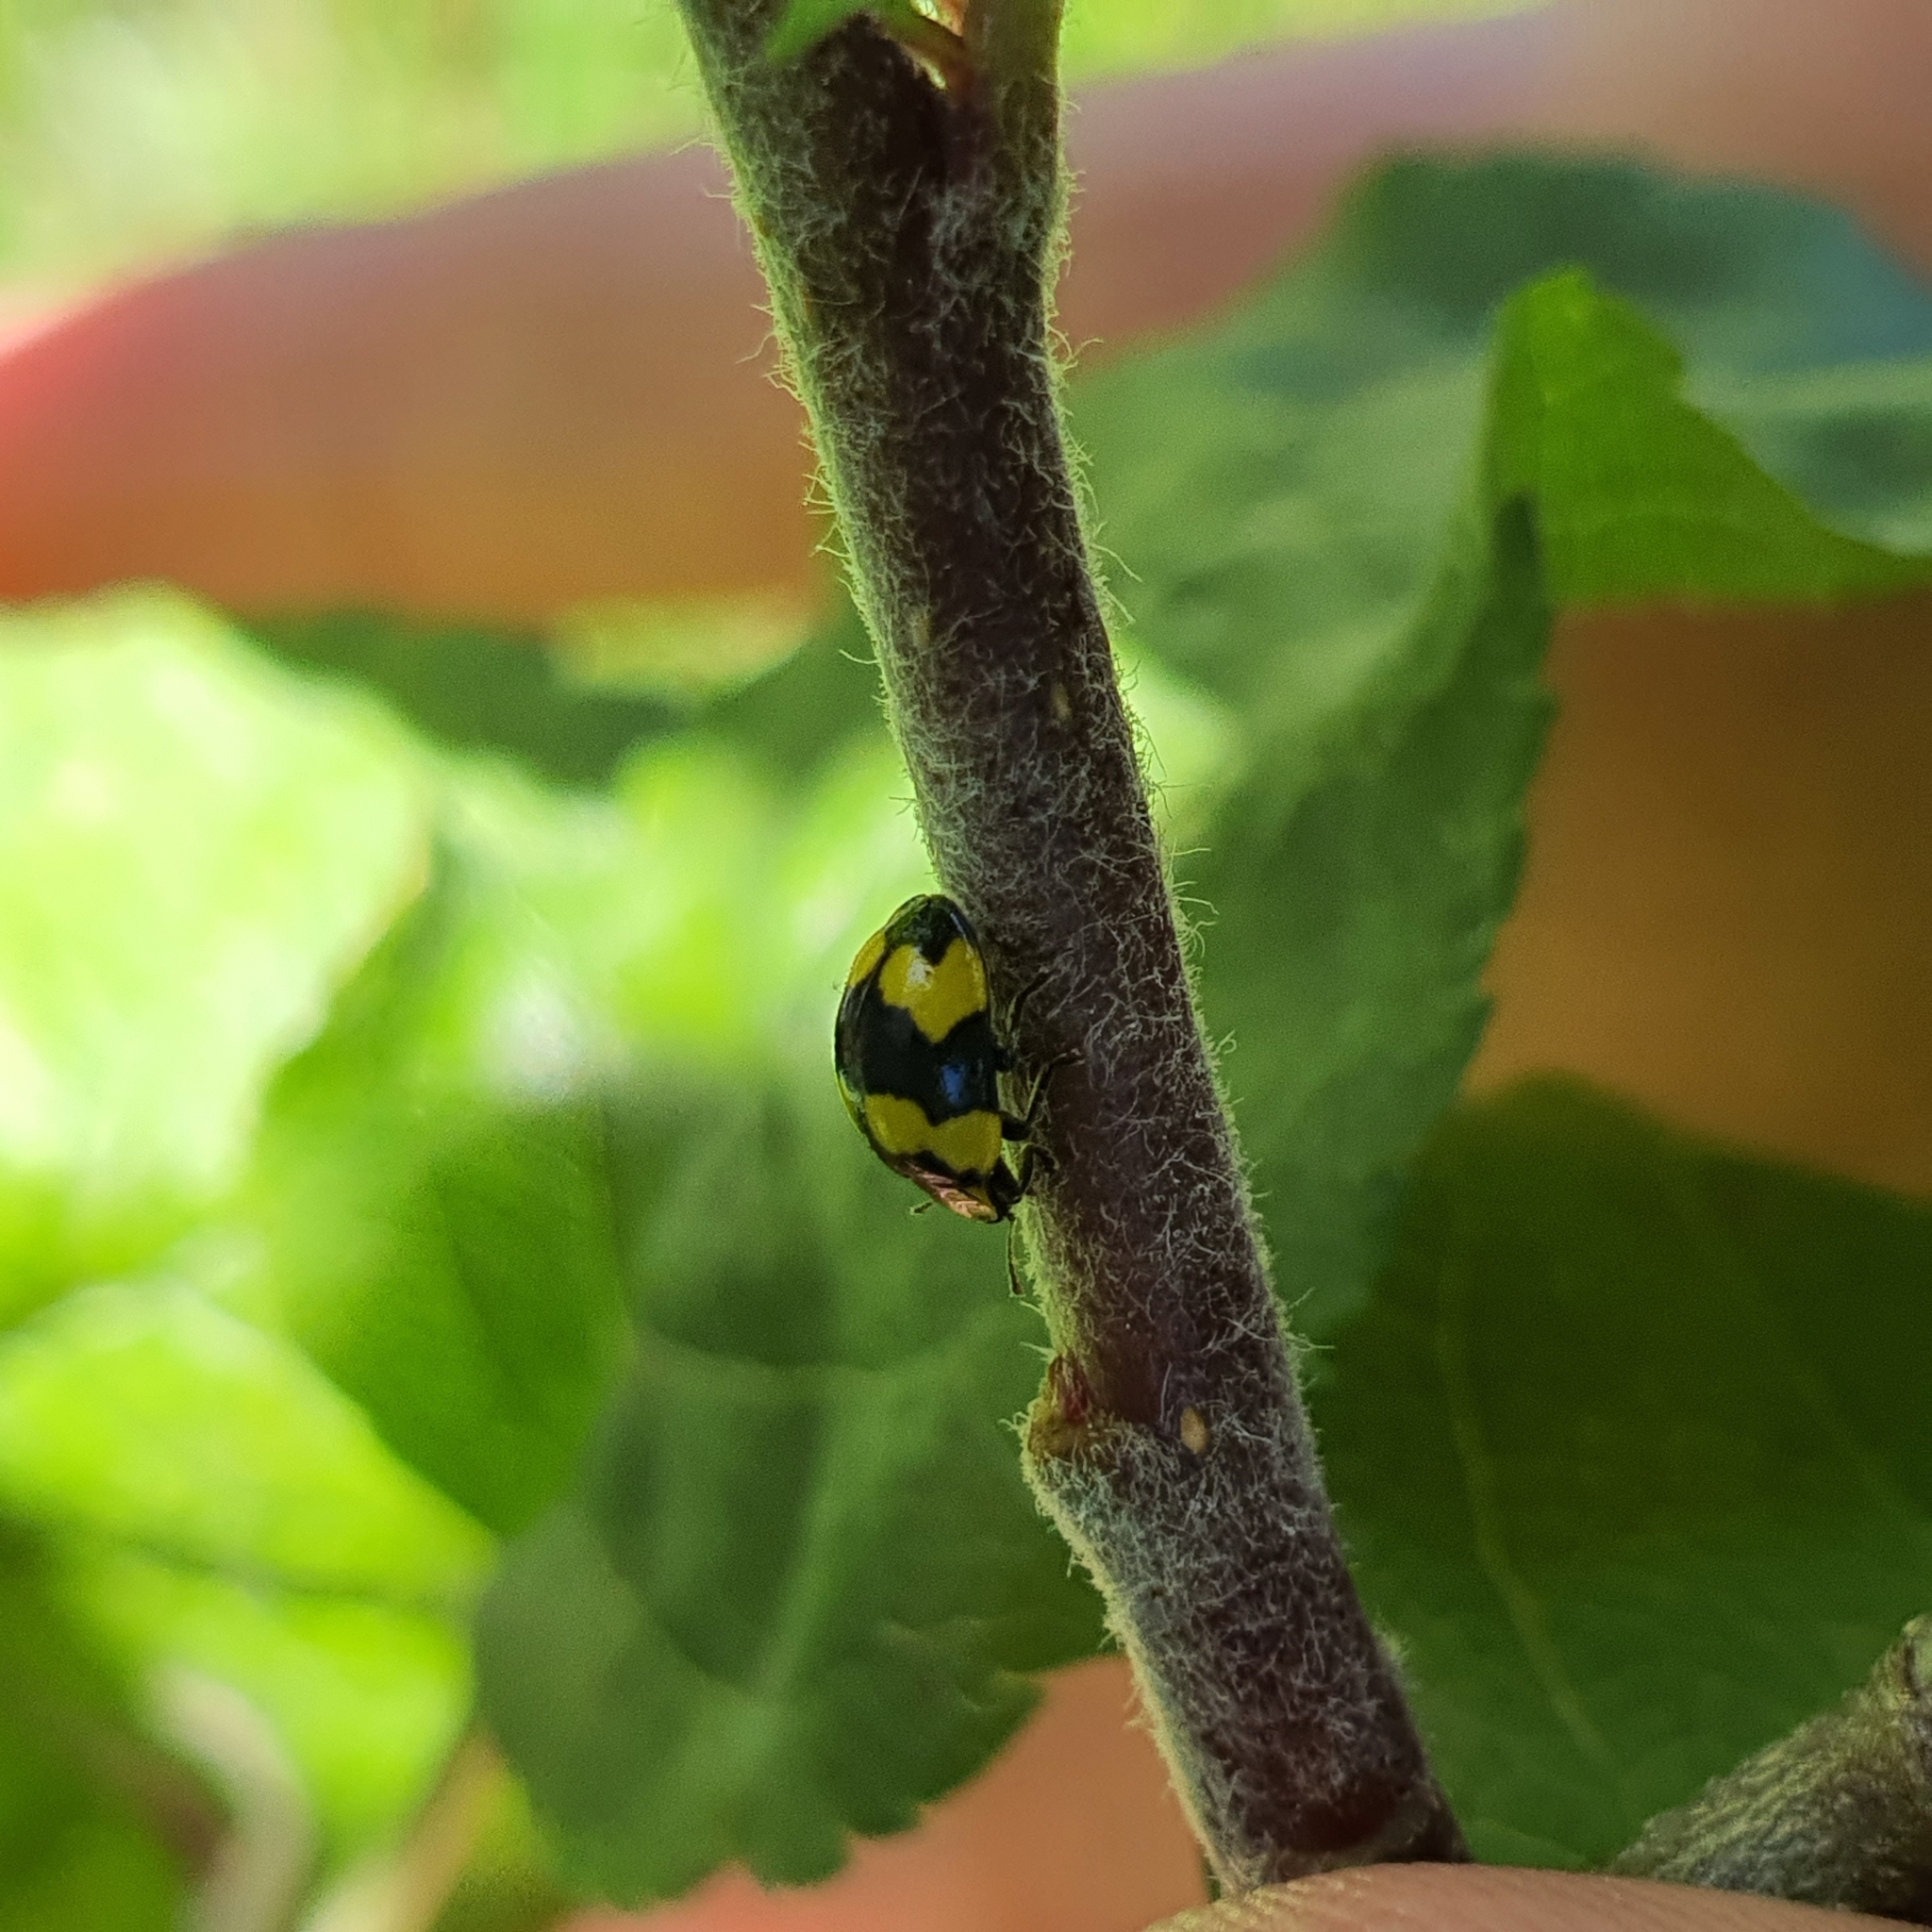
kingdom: Animalia
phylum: Arthropoda
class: Insecta
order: Coleoptera
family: Coccinellidae
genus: Illeis
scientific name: Illeis galbula
